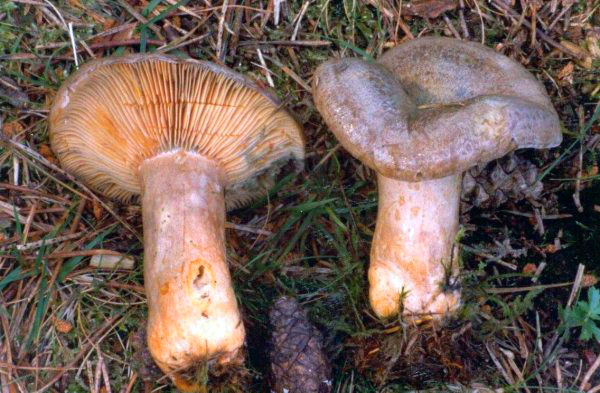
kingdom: Fungi
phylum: Basidiomycota
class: Agaricomycetes
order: Russulales
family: Russulaceae
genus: Lactarius
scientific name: Lactarius quieticolor
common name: Carrot milkcap
